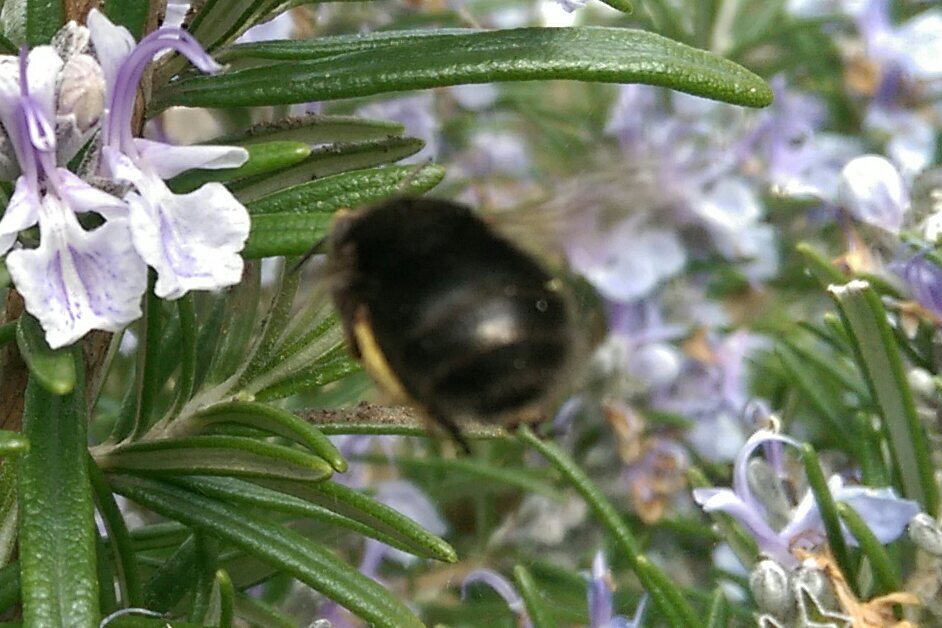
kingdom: Animalia
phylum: Arthropoda
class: Insecta
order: Hymenoptera
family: Apidae
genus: Anthophora
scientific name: Anthophora plumipes
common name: Hairy-footed flower bee
